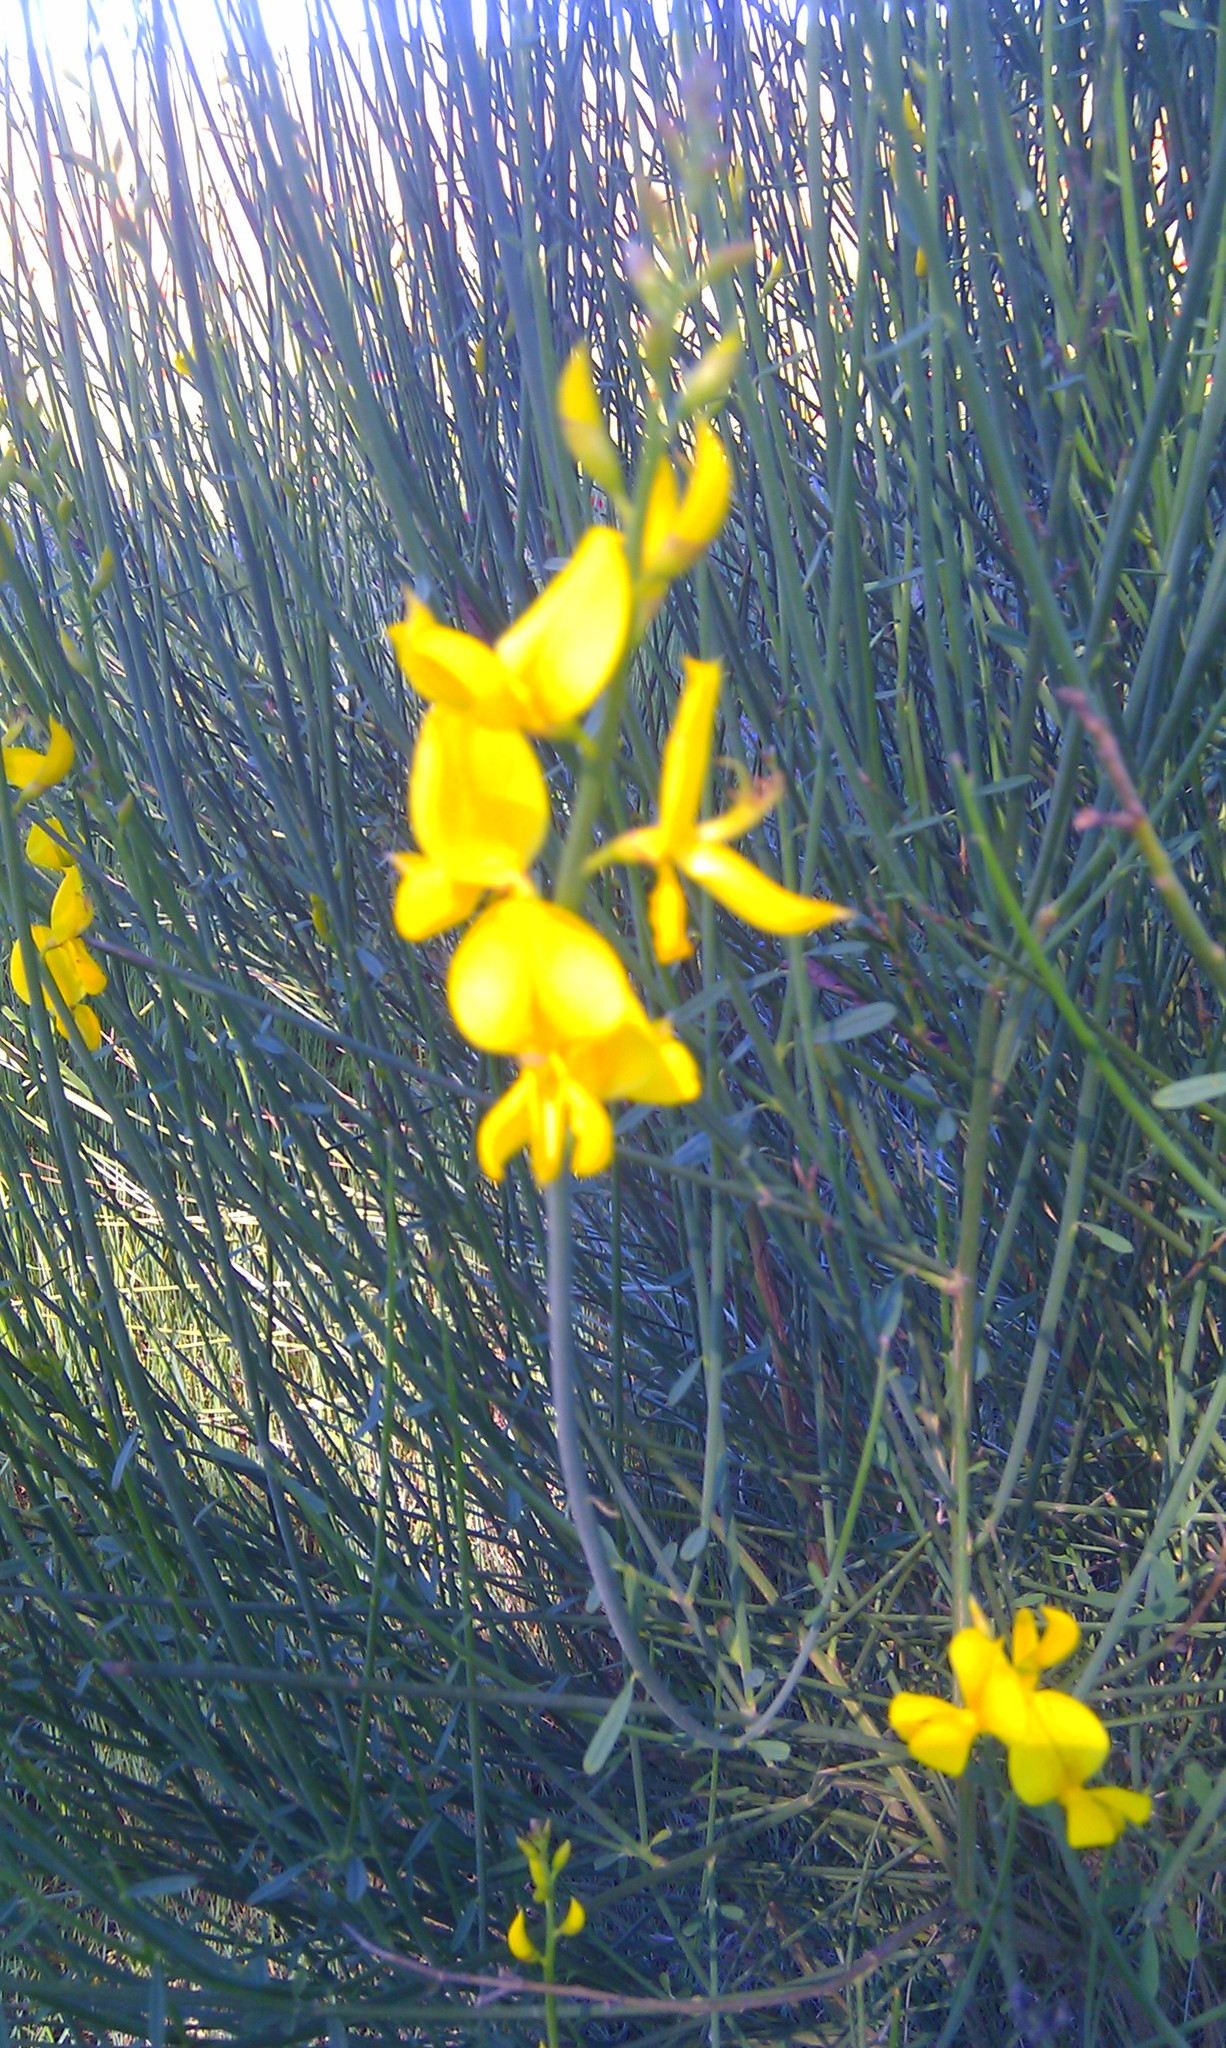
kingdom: Plantae
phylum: Tracheophyta
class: Magnoliopsida
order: Fabales
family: Fabaceae
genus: Spartium
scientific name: Spartium junceum
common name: Spanish broom
